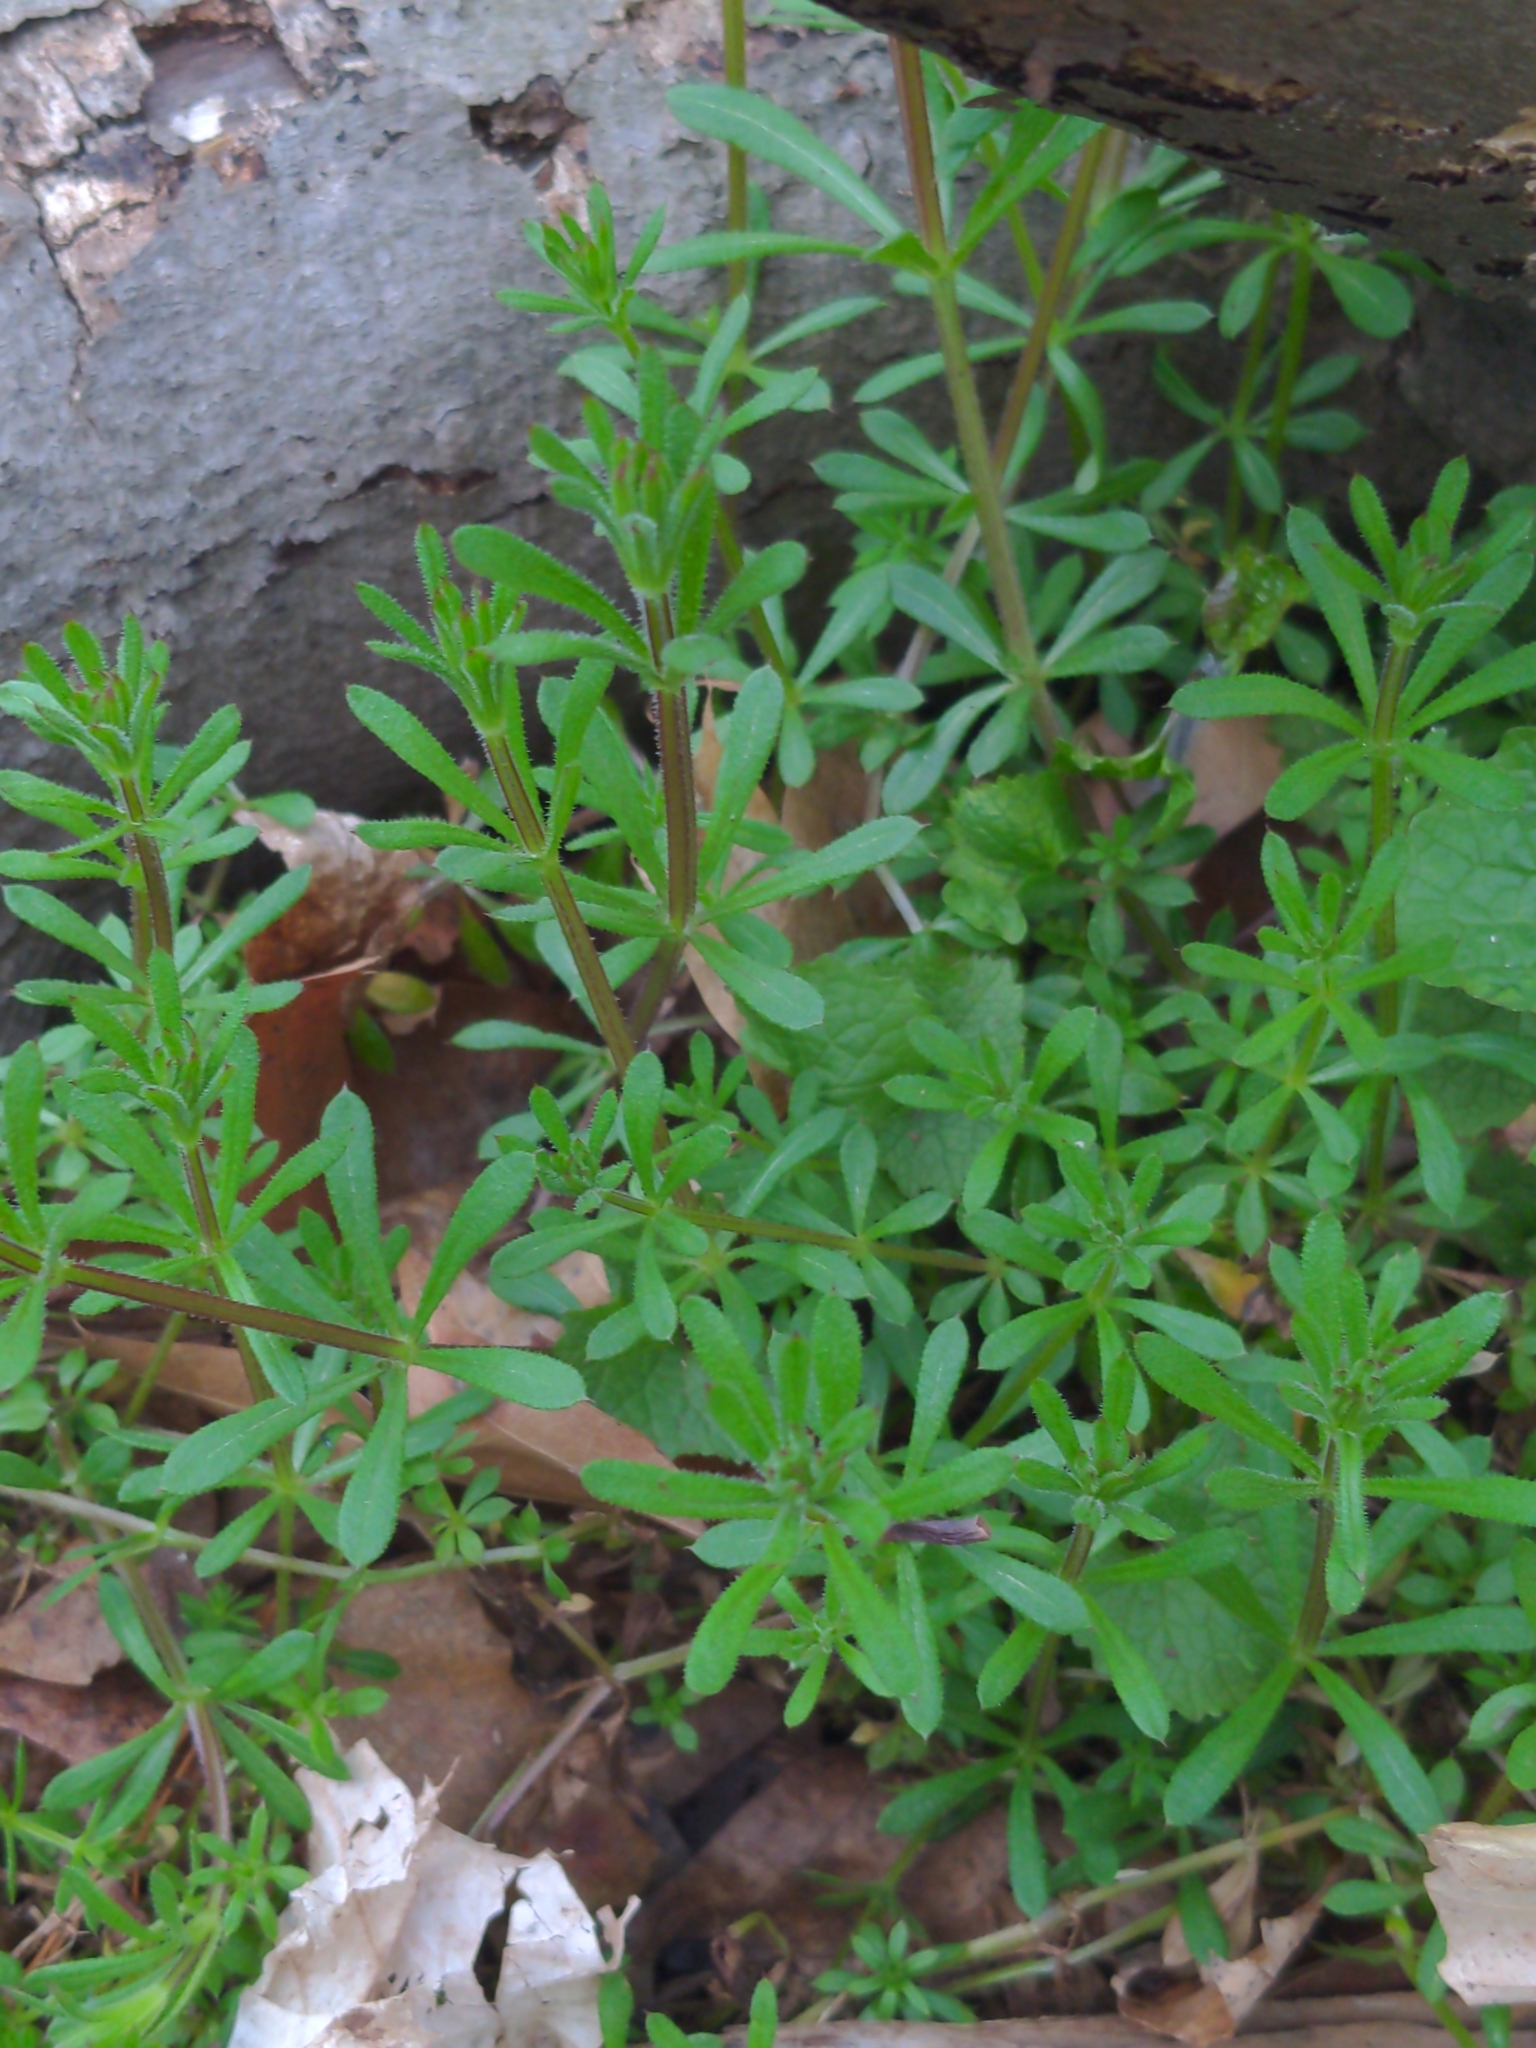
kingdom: Plantae
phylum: Tracheophyta
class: Magnoliopsida
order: Gentianales
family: Rubiaceae
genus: Galium
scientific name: Galium aparine
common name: Cleavers
